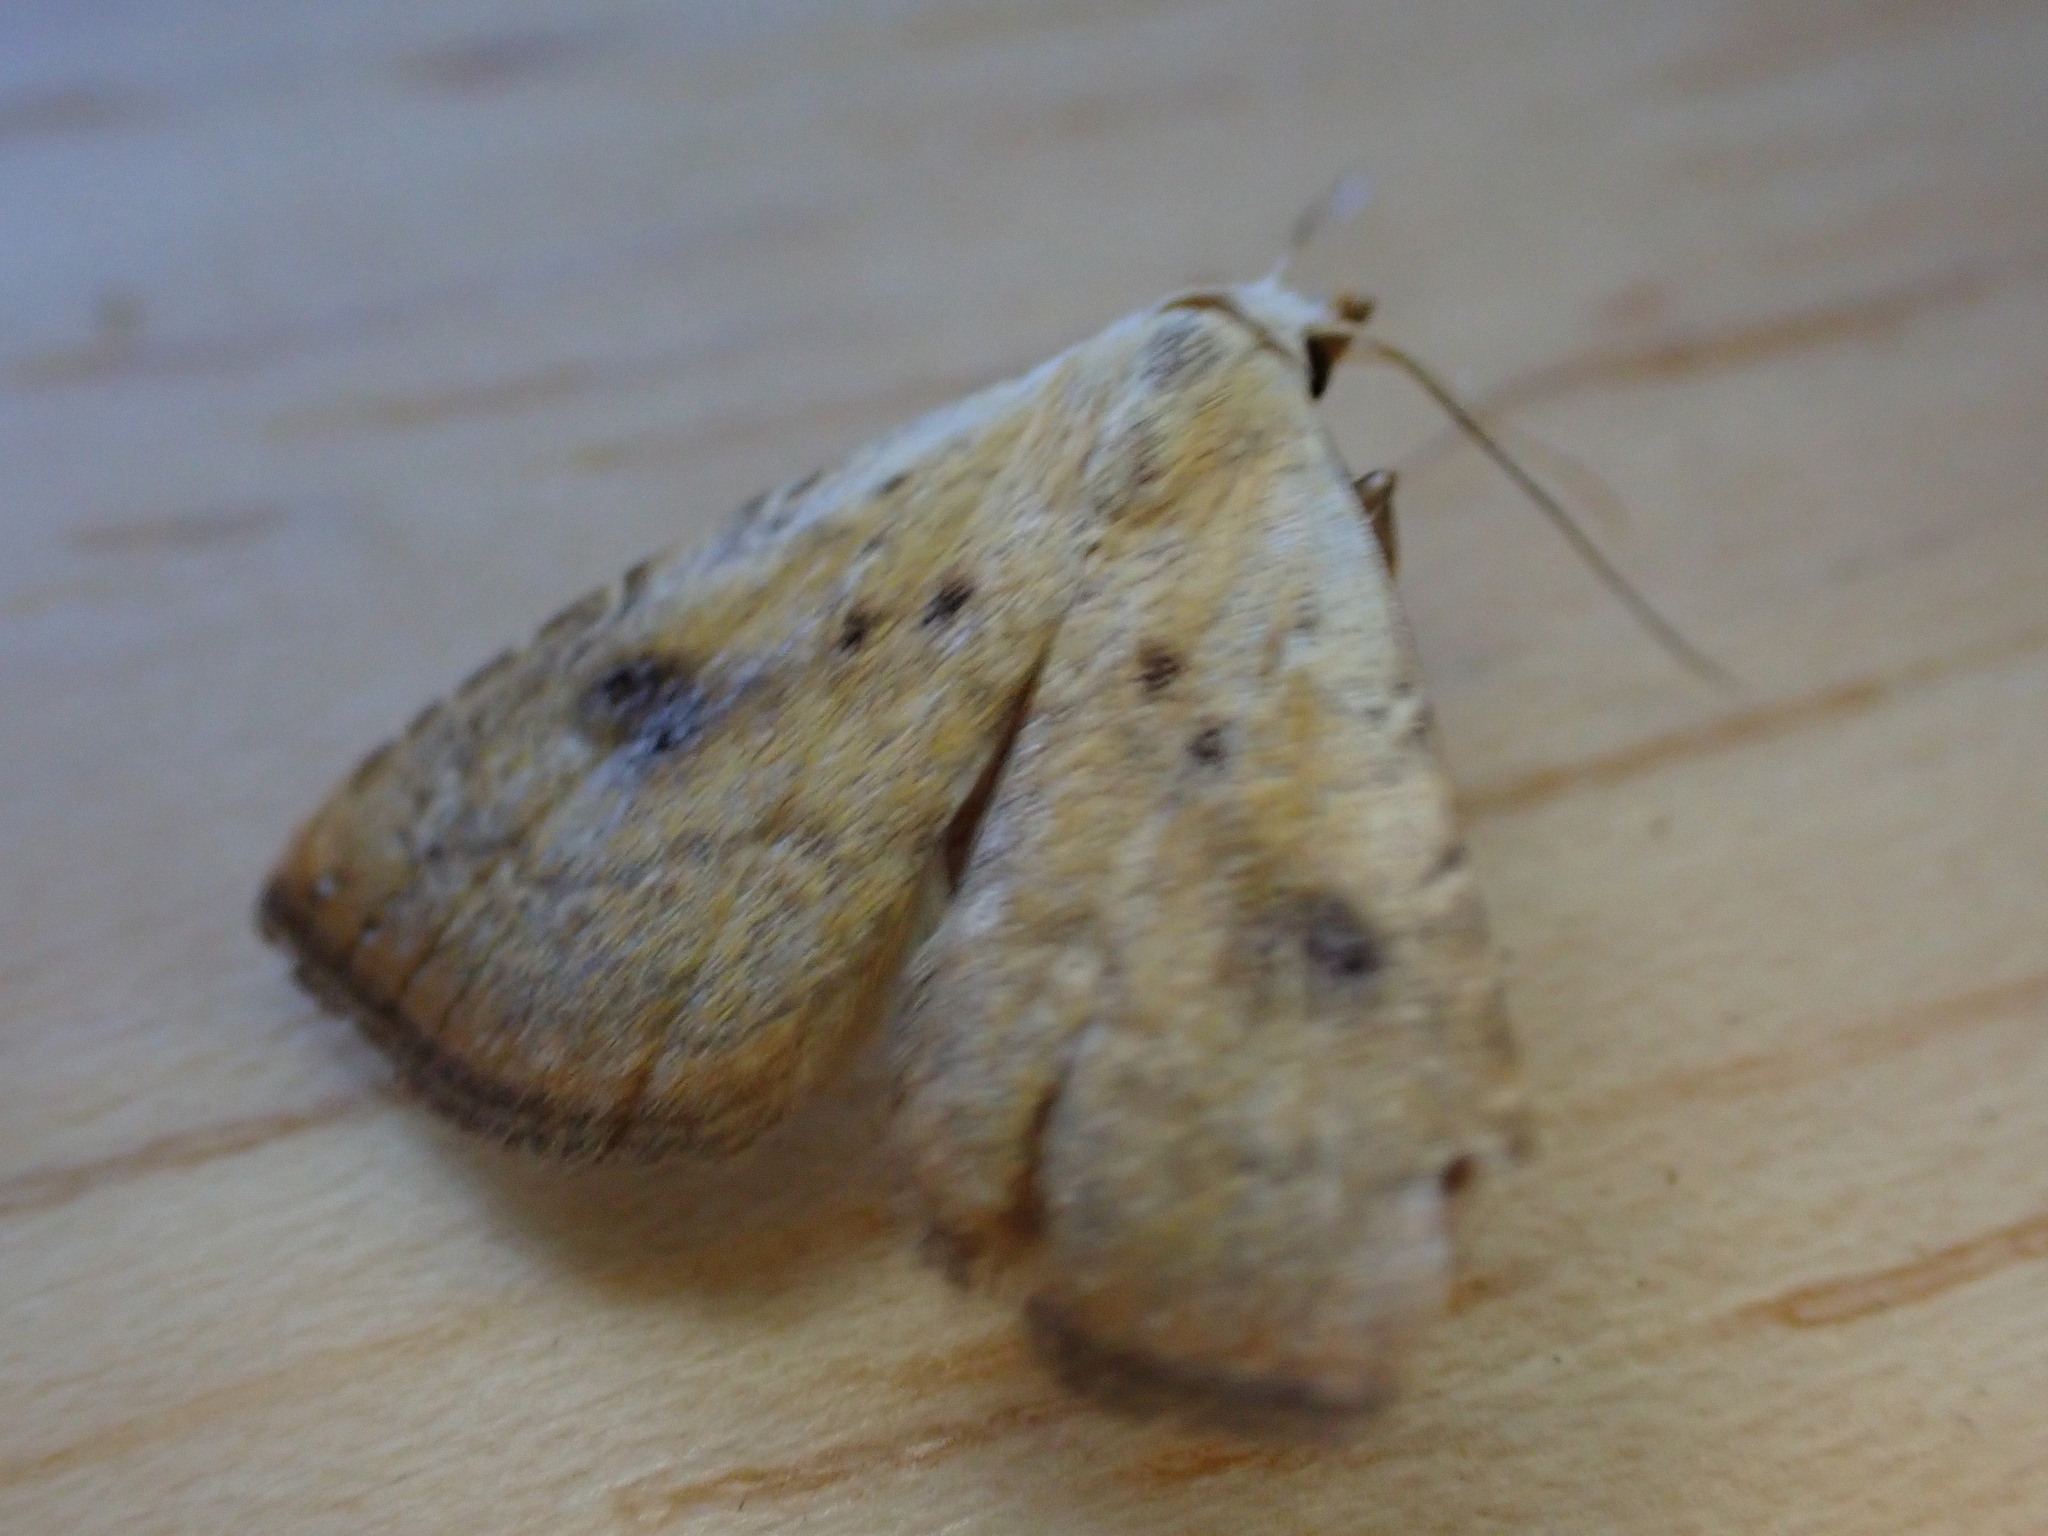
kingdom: Animalia
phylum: Arthropoda
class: Insecta
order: Lepidoptera
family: Erebidae
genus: Rivula
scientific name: Rivula sericealis
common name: Straw dot
